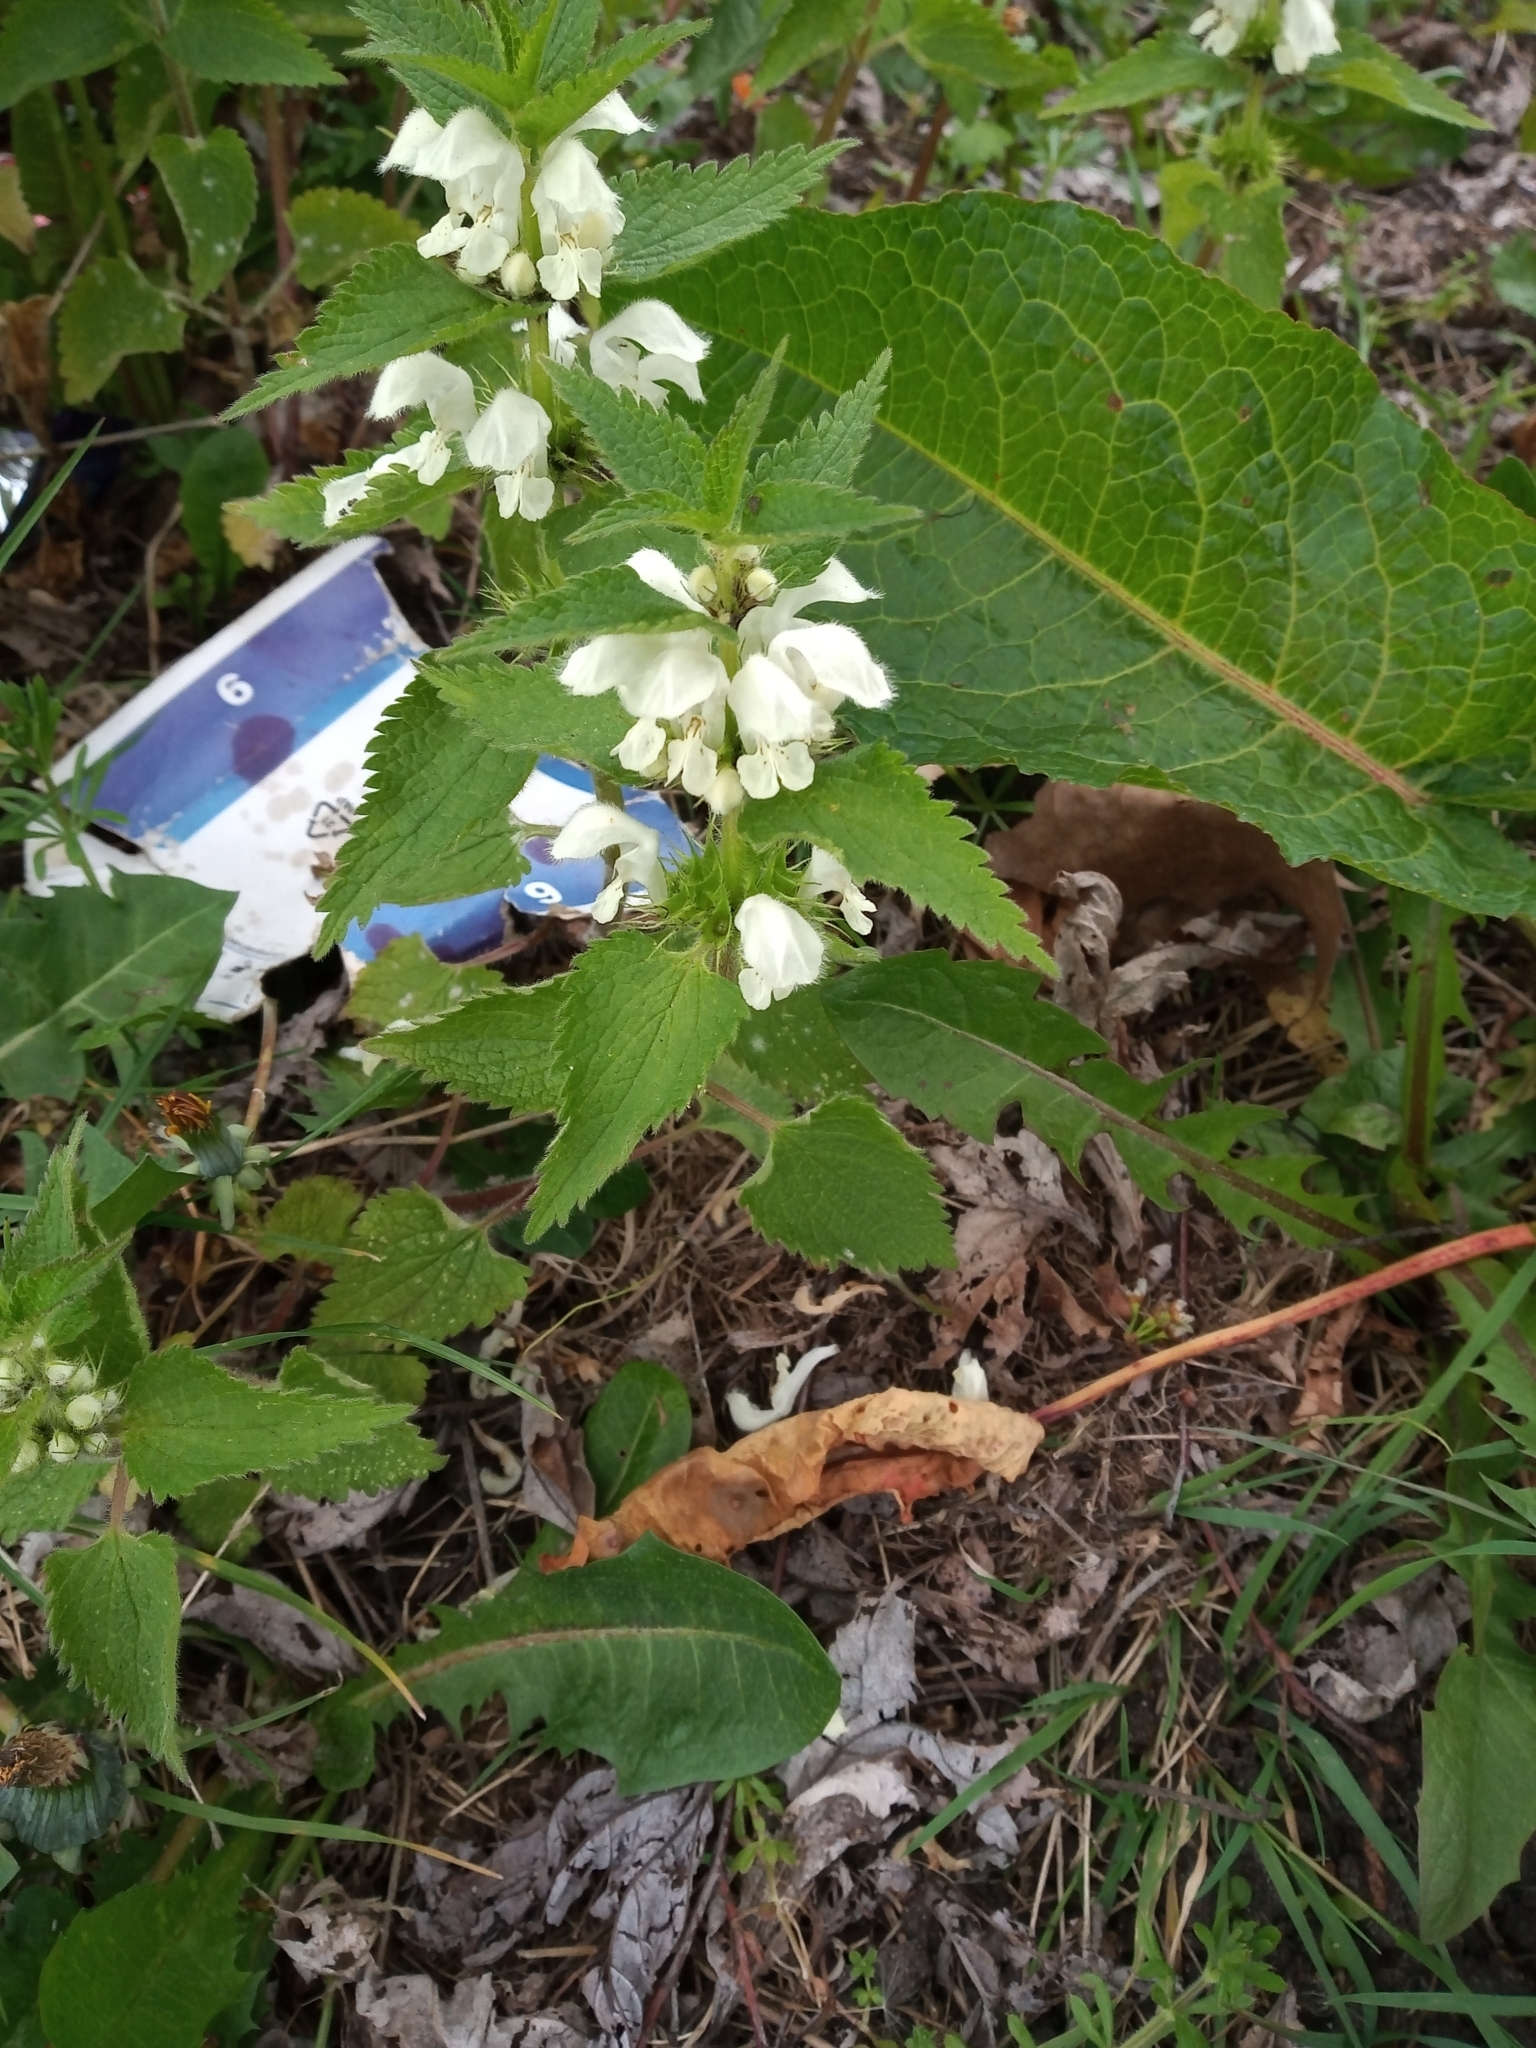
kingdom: Plantae
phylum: Tracheophyta
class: Magnoliopsida
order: Lamiales
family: Lamiaceae
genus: Lamium
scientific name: Lamium album
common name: White dead-nettle
